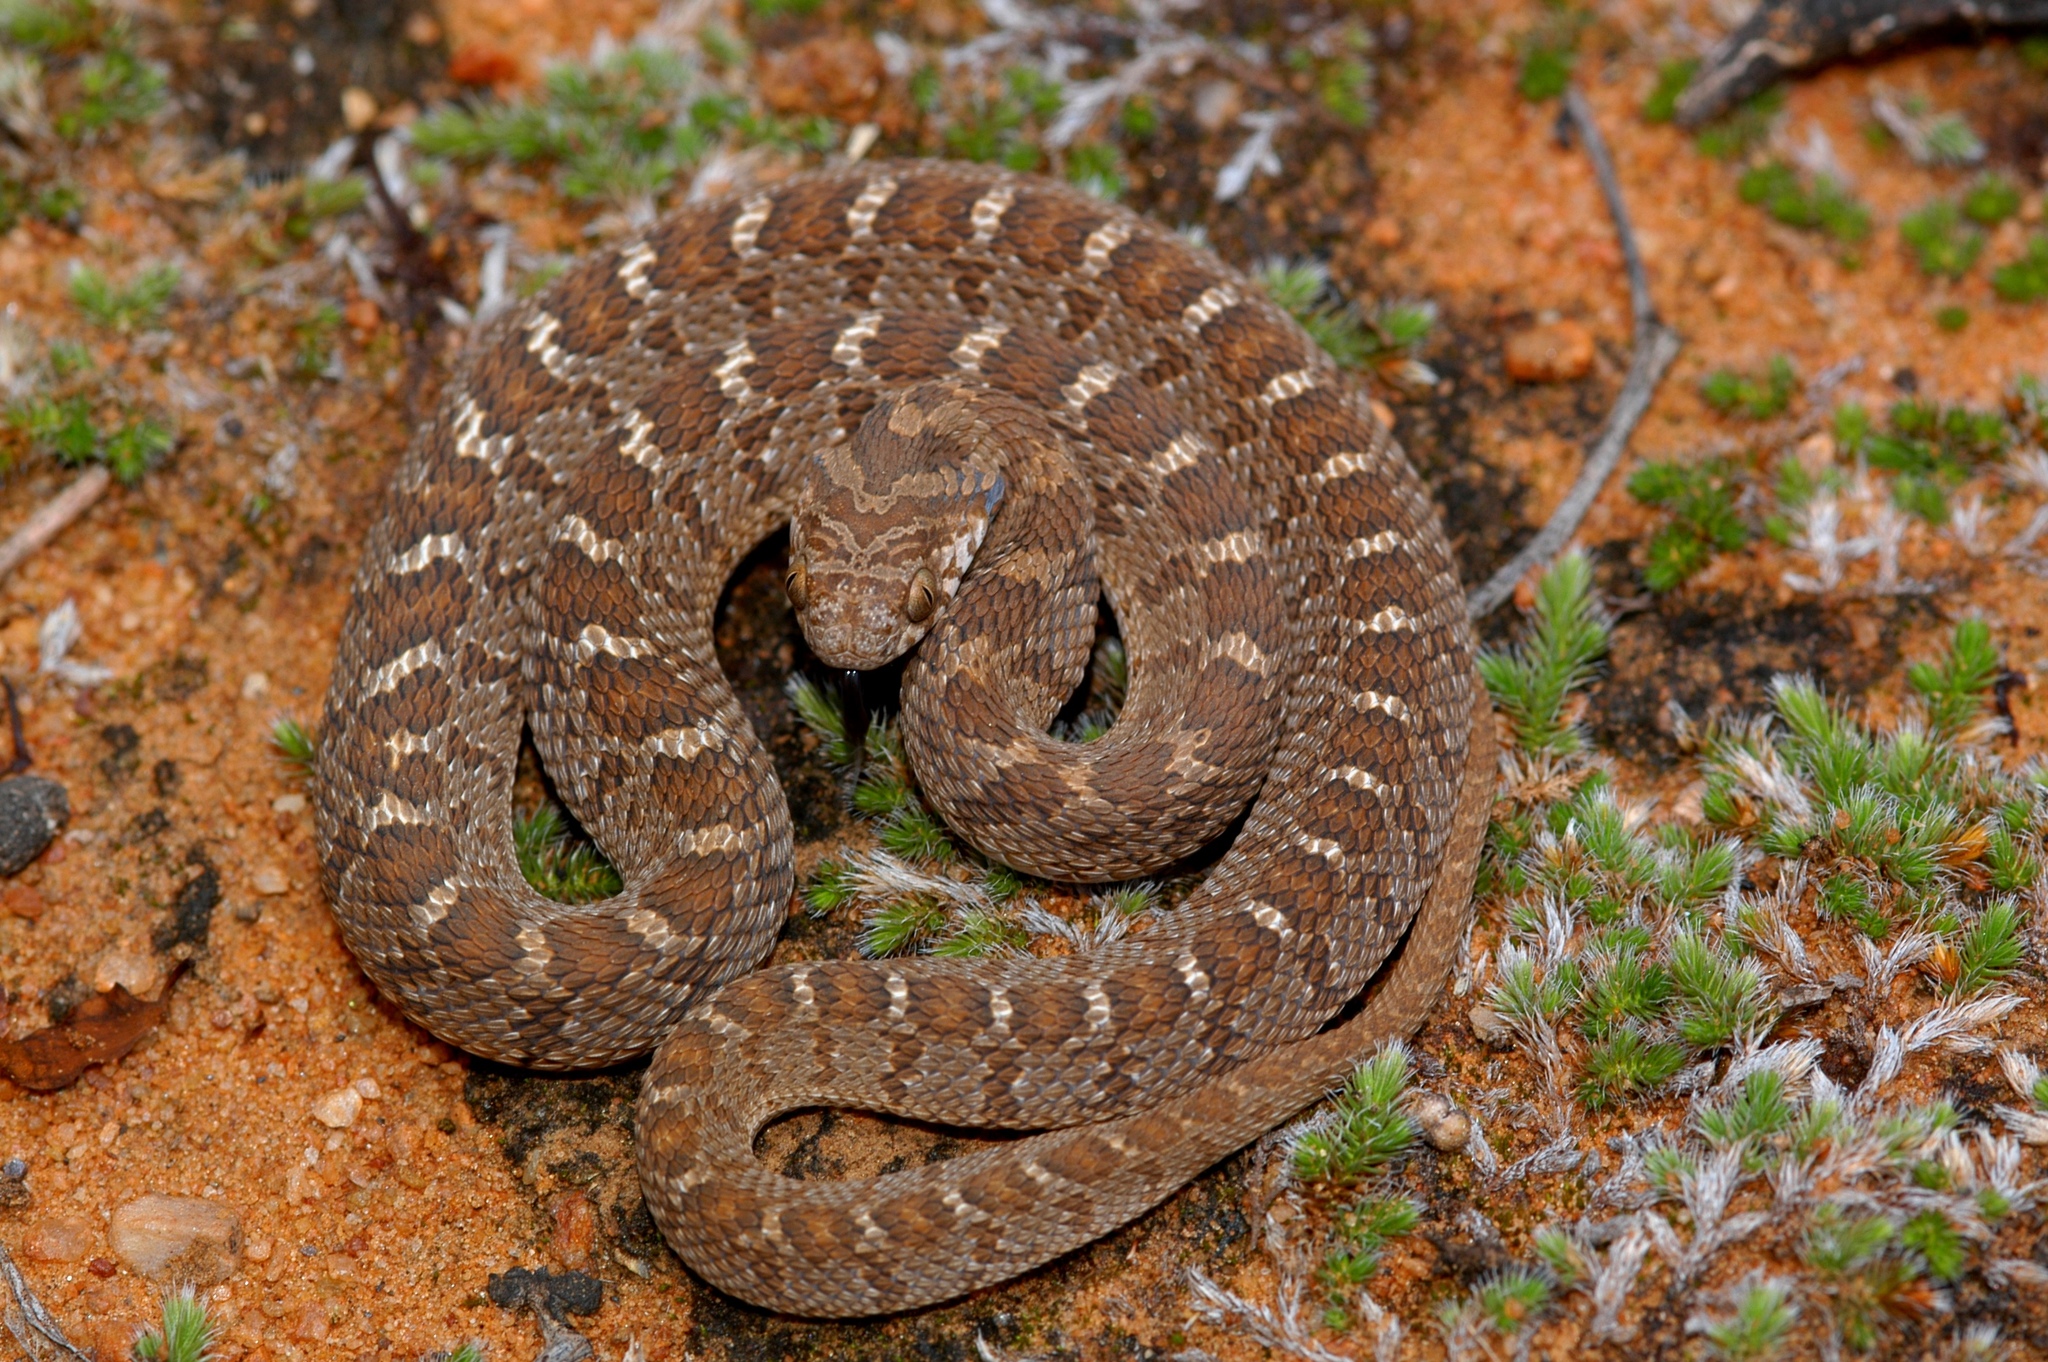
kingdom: Animalia
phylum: Chordata
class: Squamata
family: Colubridae
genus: Dasypeltis
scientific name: Dasypeltis scabra
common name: Common egg eater
